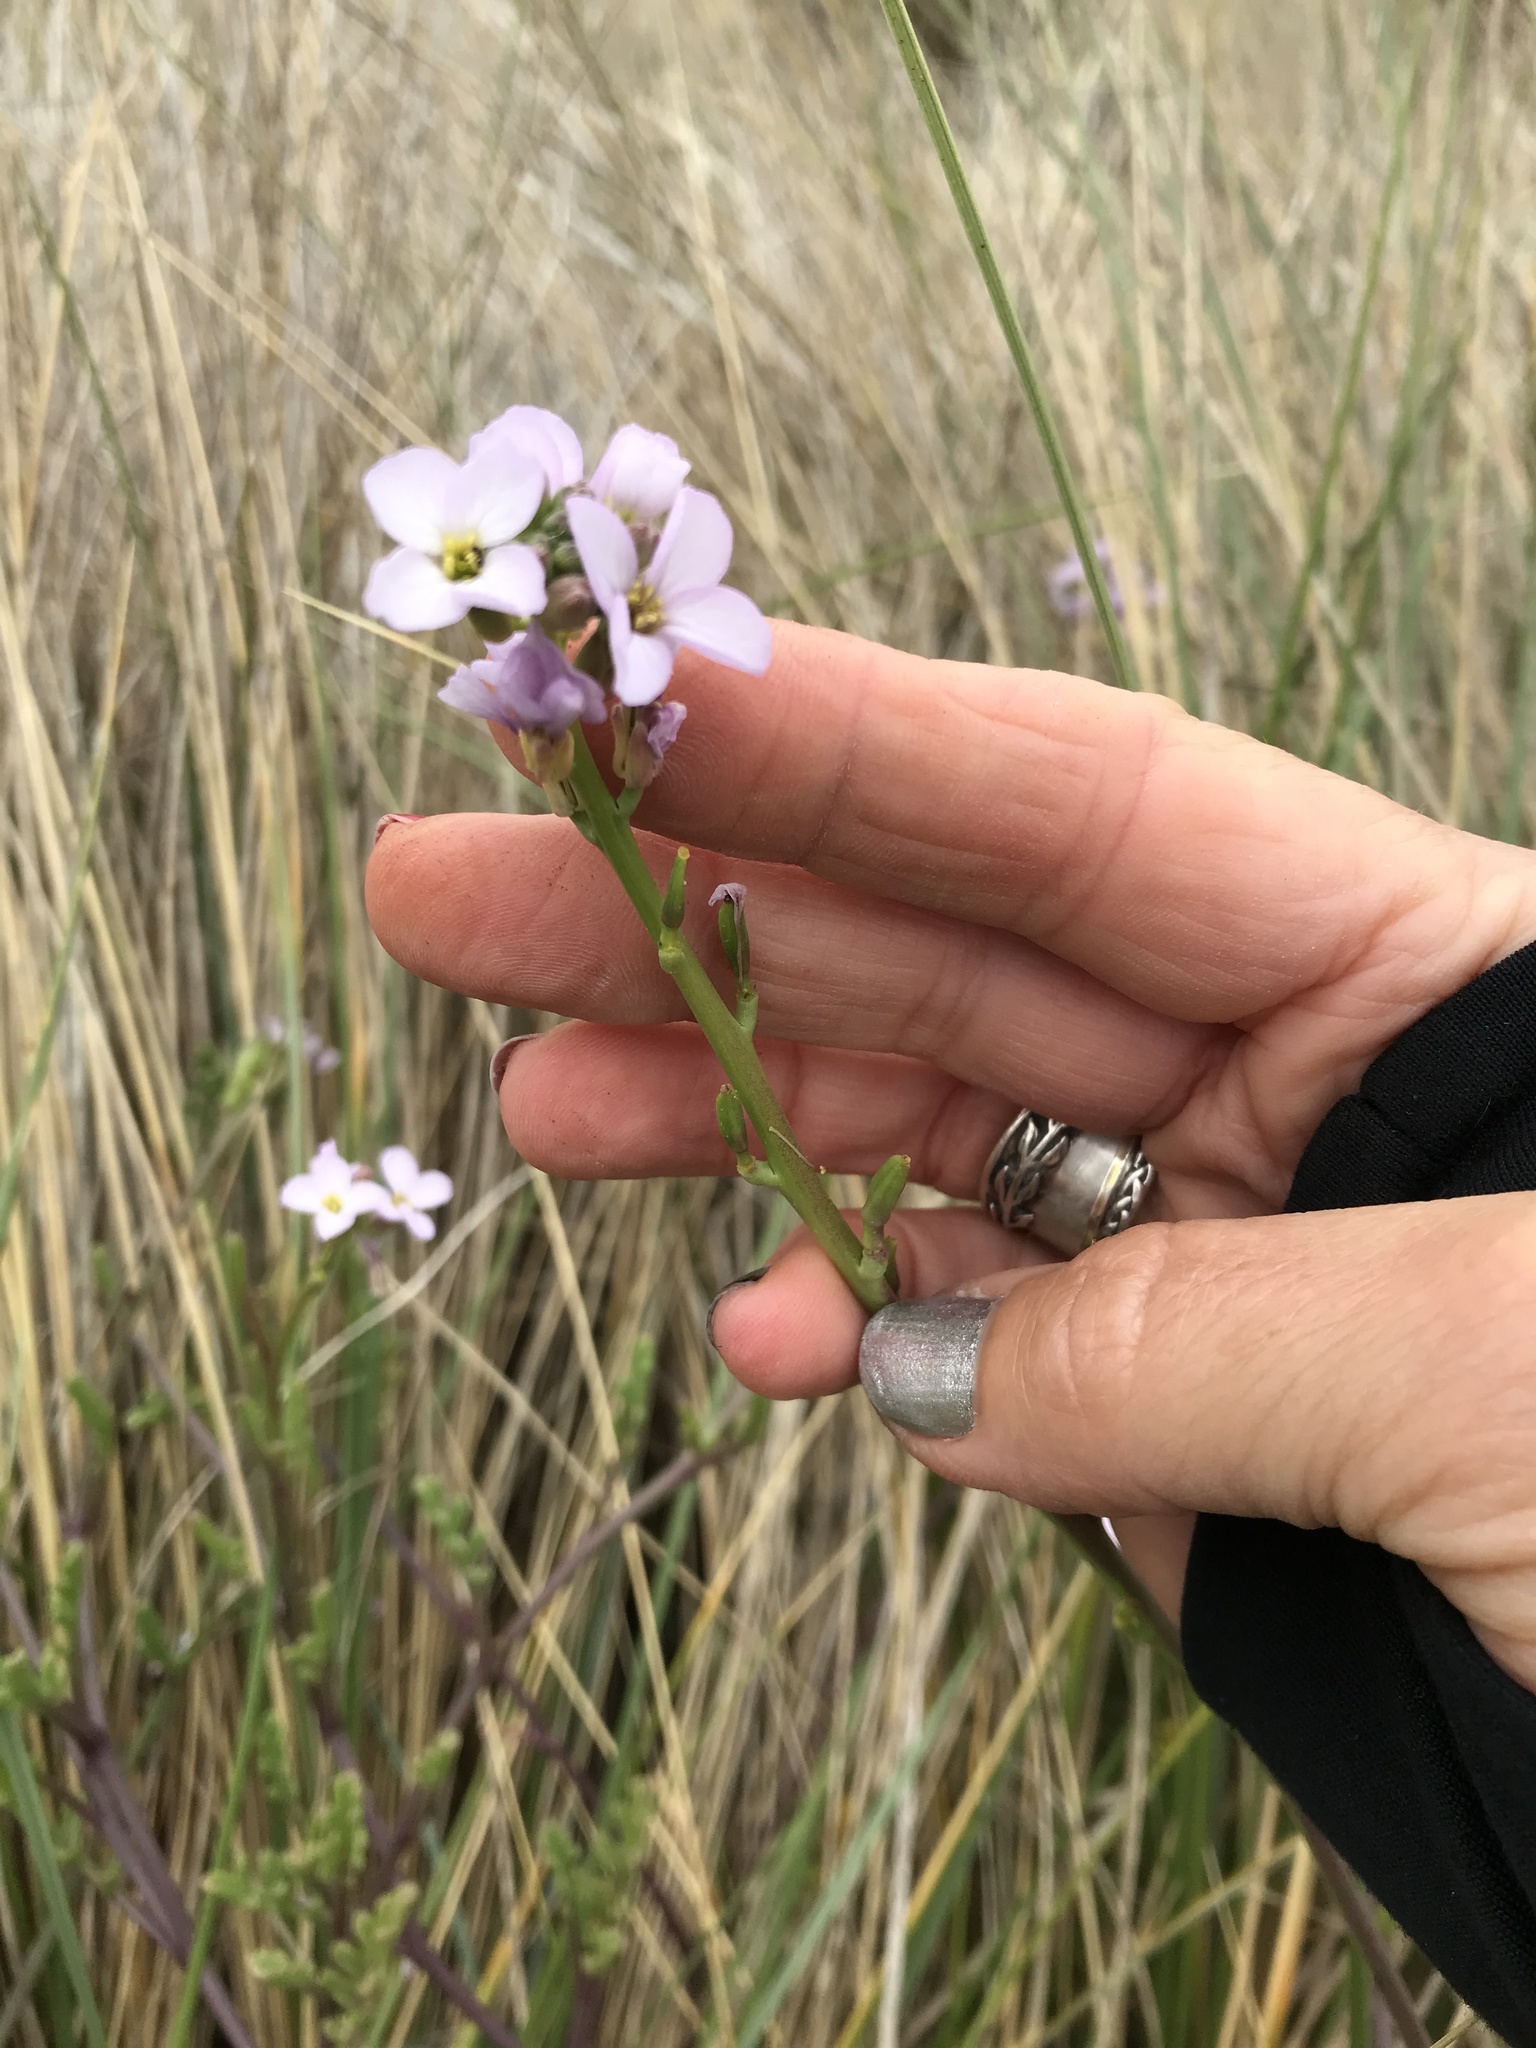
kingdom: Plantae
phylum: Tracheophyta
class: Magnoliopsida
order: Brassicales
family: Brassicaceae
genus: Cakile
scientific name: Cakile maritima
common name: Sea rocket
